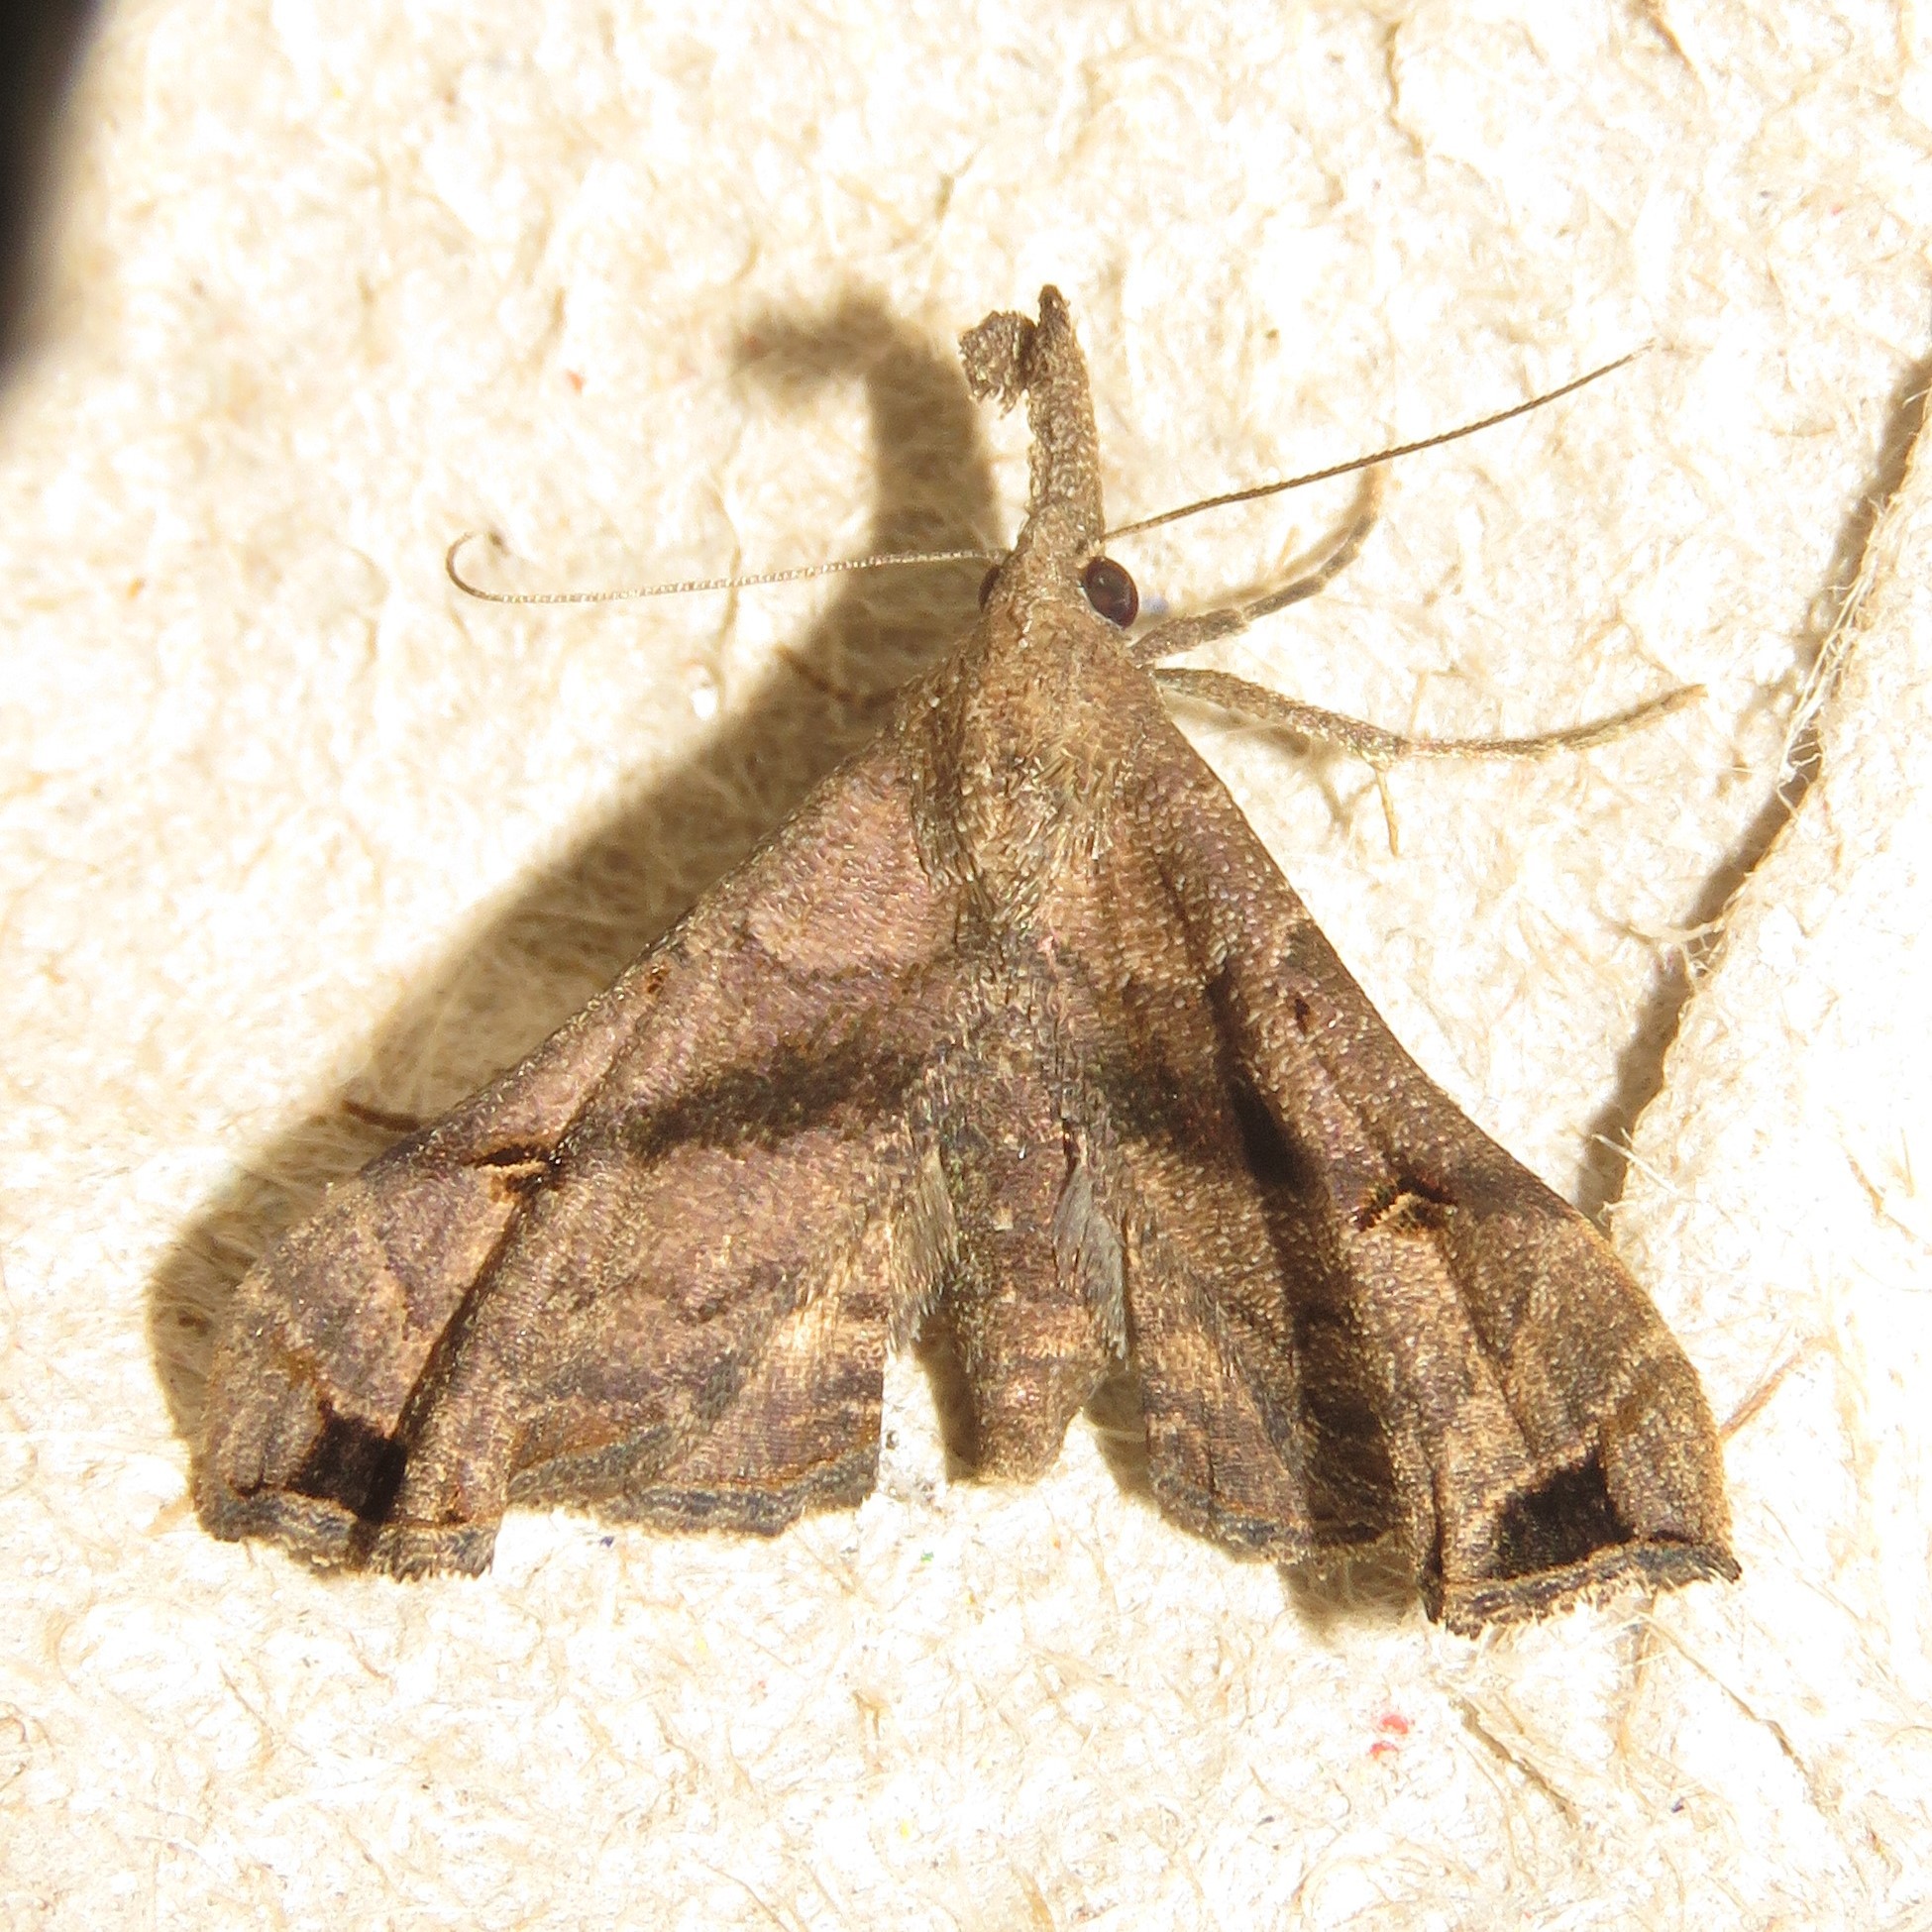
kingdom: Animalia
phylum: Arthropoda
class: Insecta
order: Lepidoptera
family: Erebidae
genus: Palthis
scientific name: Palthis asopialis
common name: Faint-spotted palthis moth
